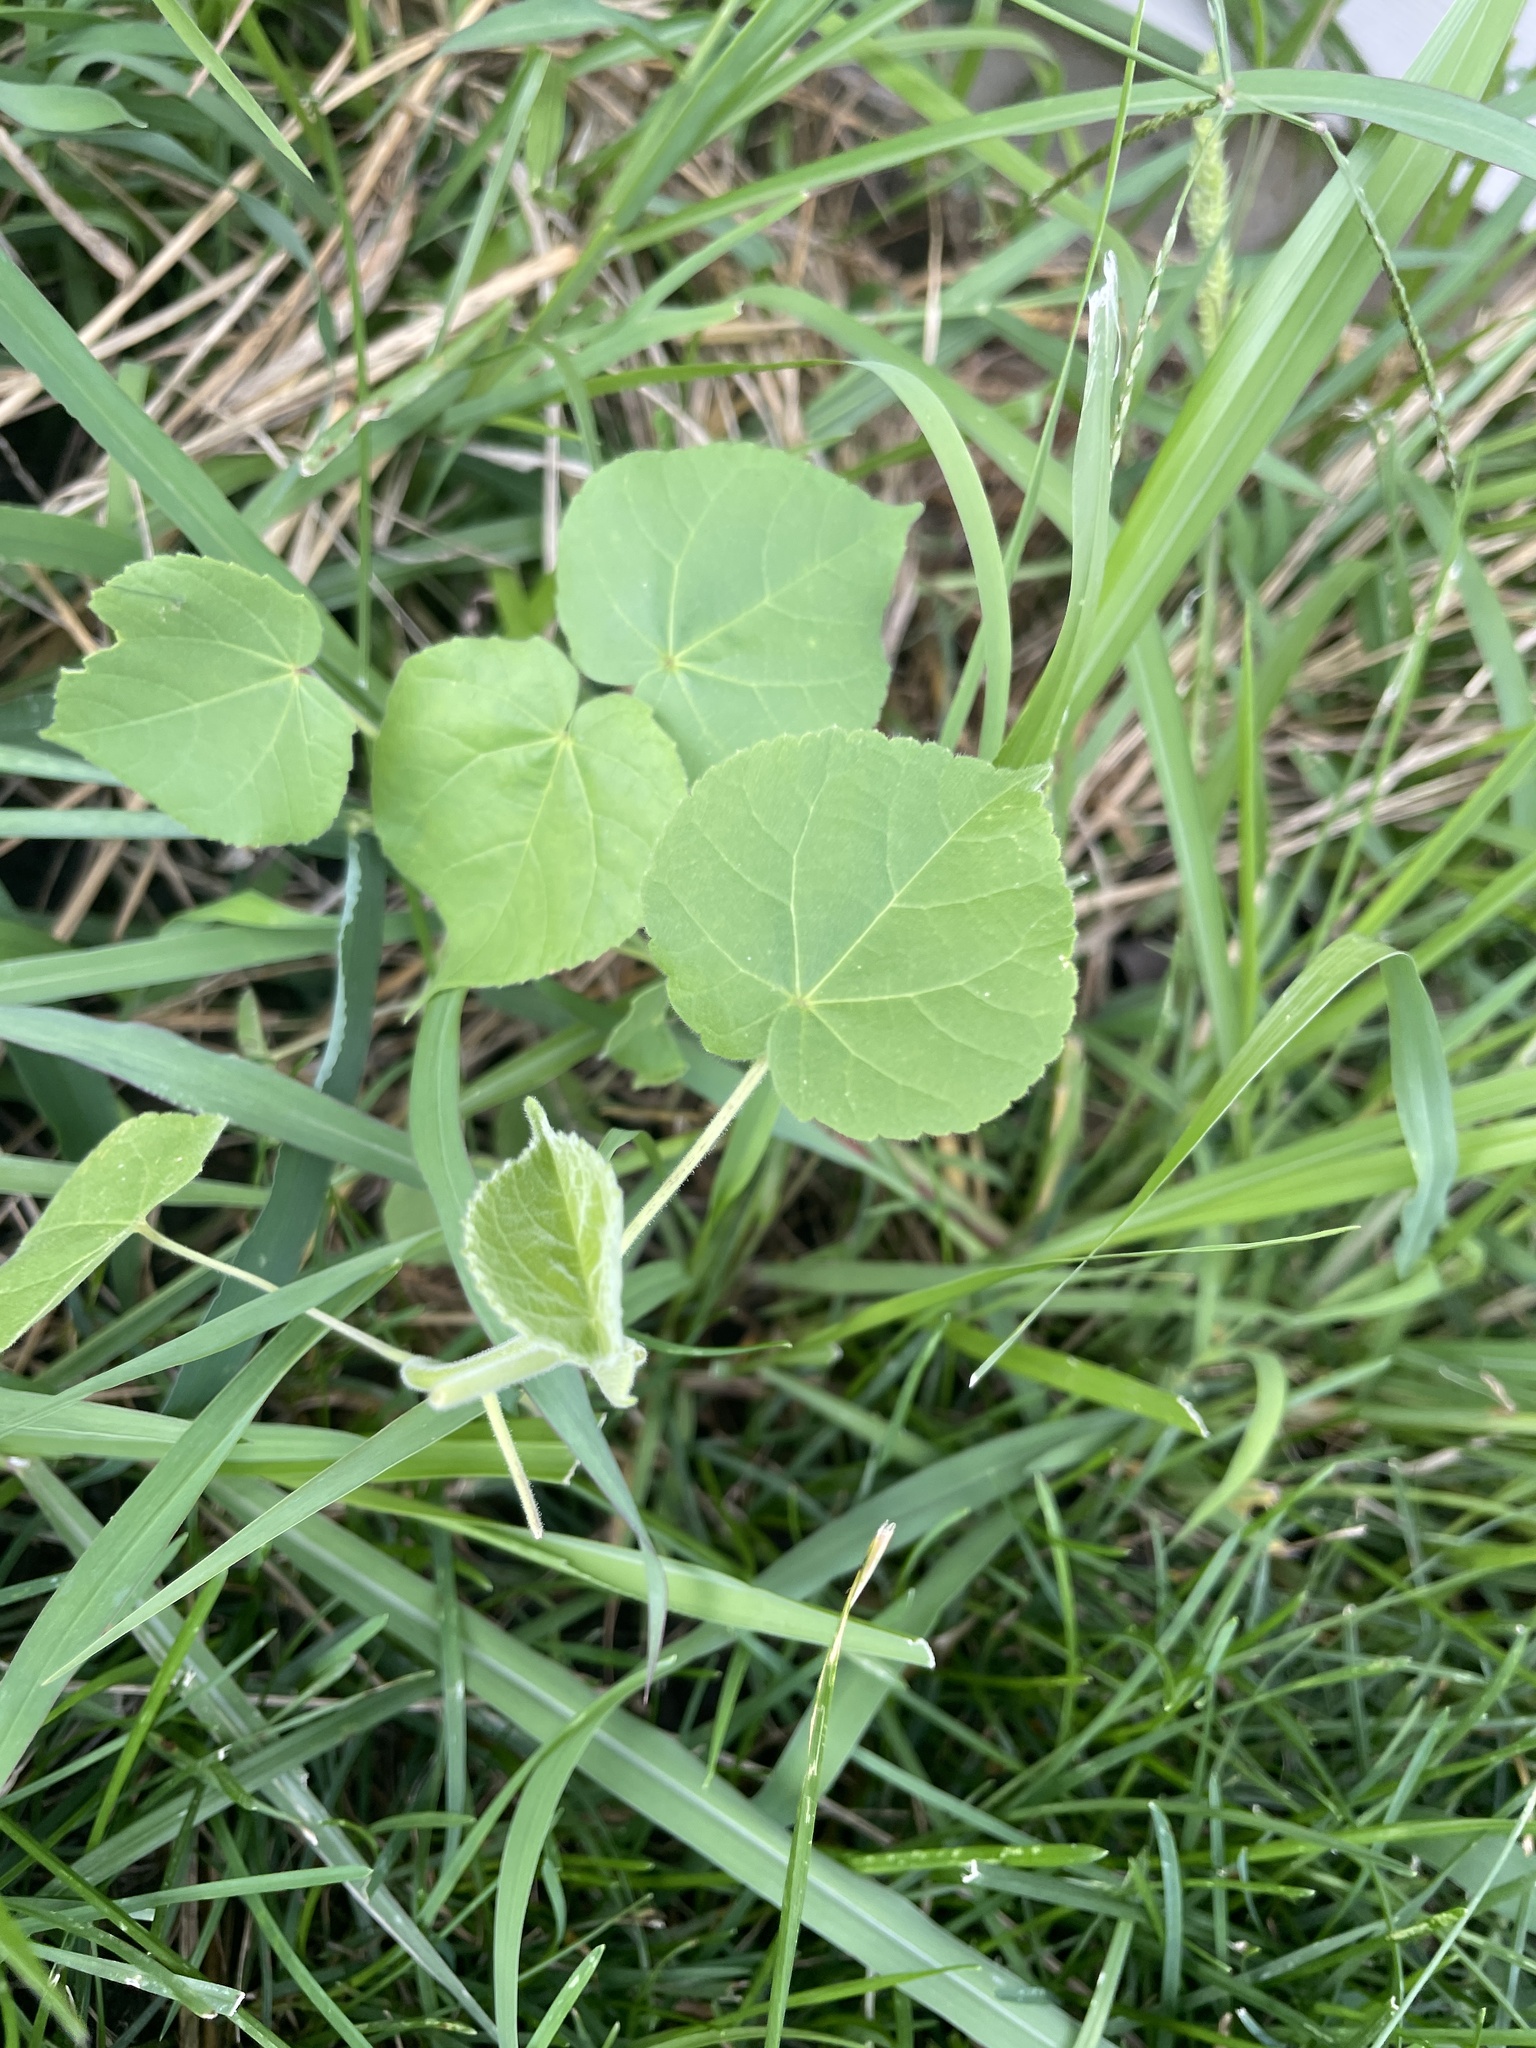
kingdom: Plantae
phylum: Tracheophyta
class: Magnoliopsida
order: Malvales
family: Malvaceae
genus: Abutilon
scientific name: Abutilon theophrasti
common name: Velvetleaf
